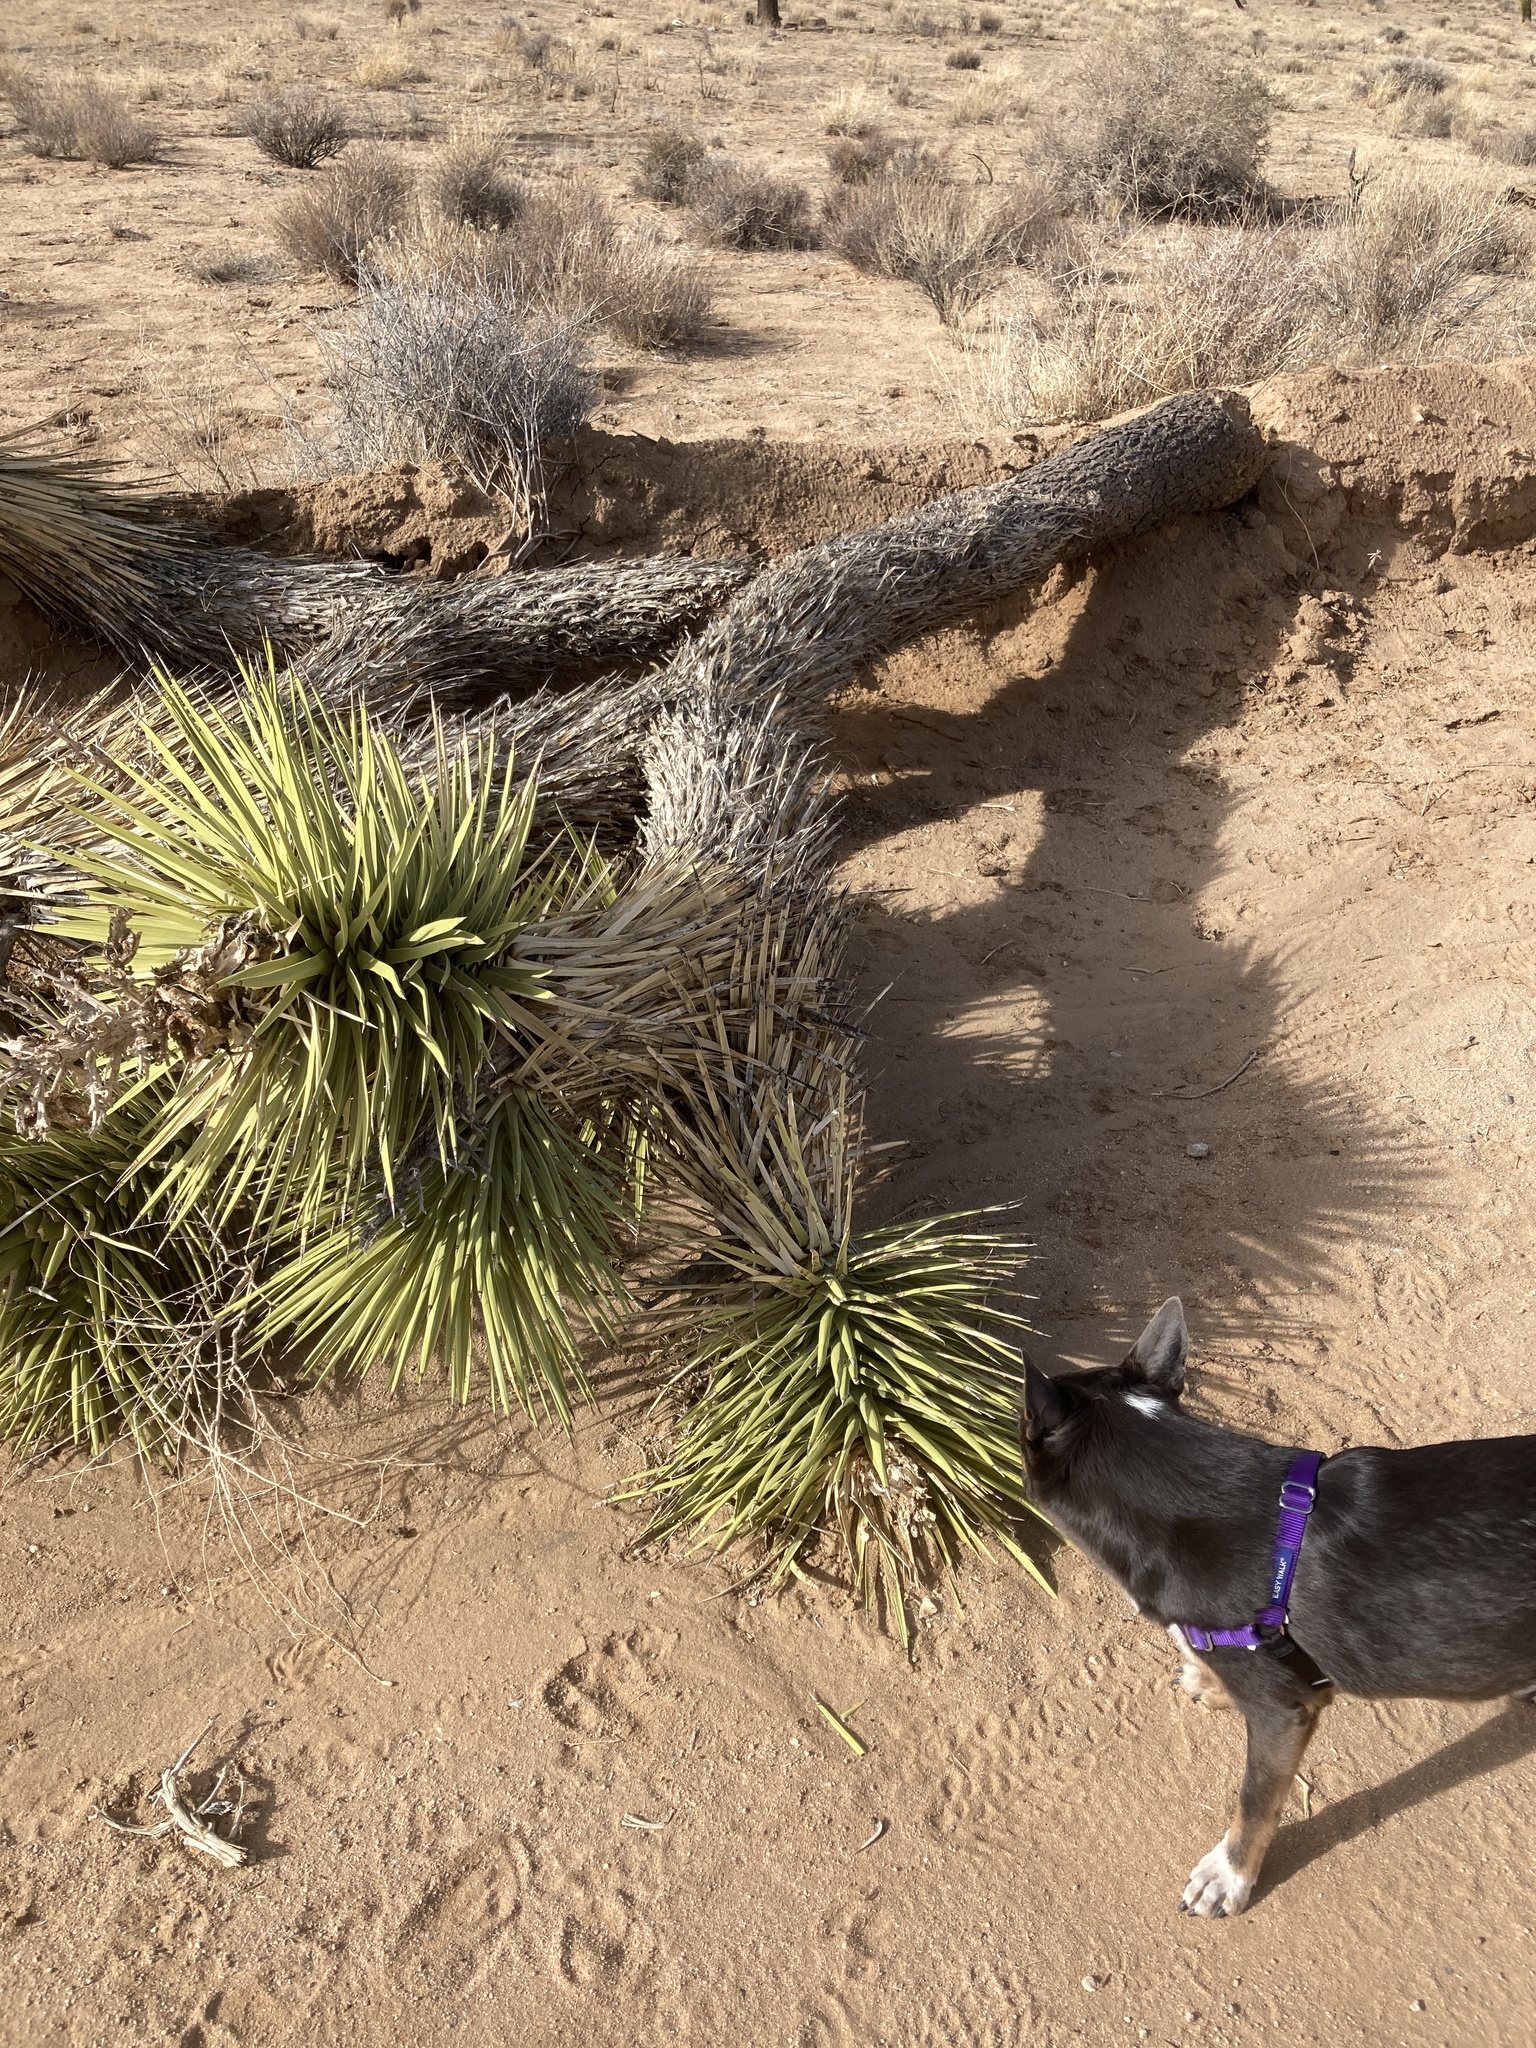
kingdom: Plantae
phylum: Tracheophyta
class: Liliopsida
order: Asparagales
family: Asparagaceae
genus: Yucca
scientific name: Yucca brevifolia
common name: Joshua tree
